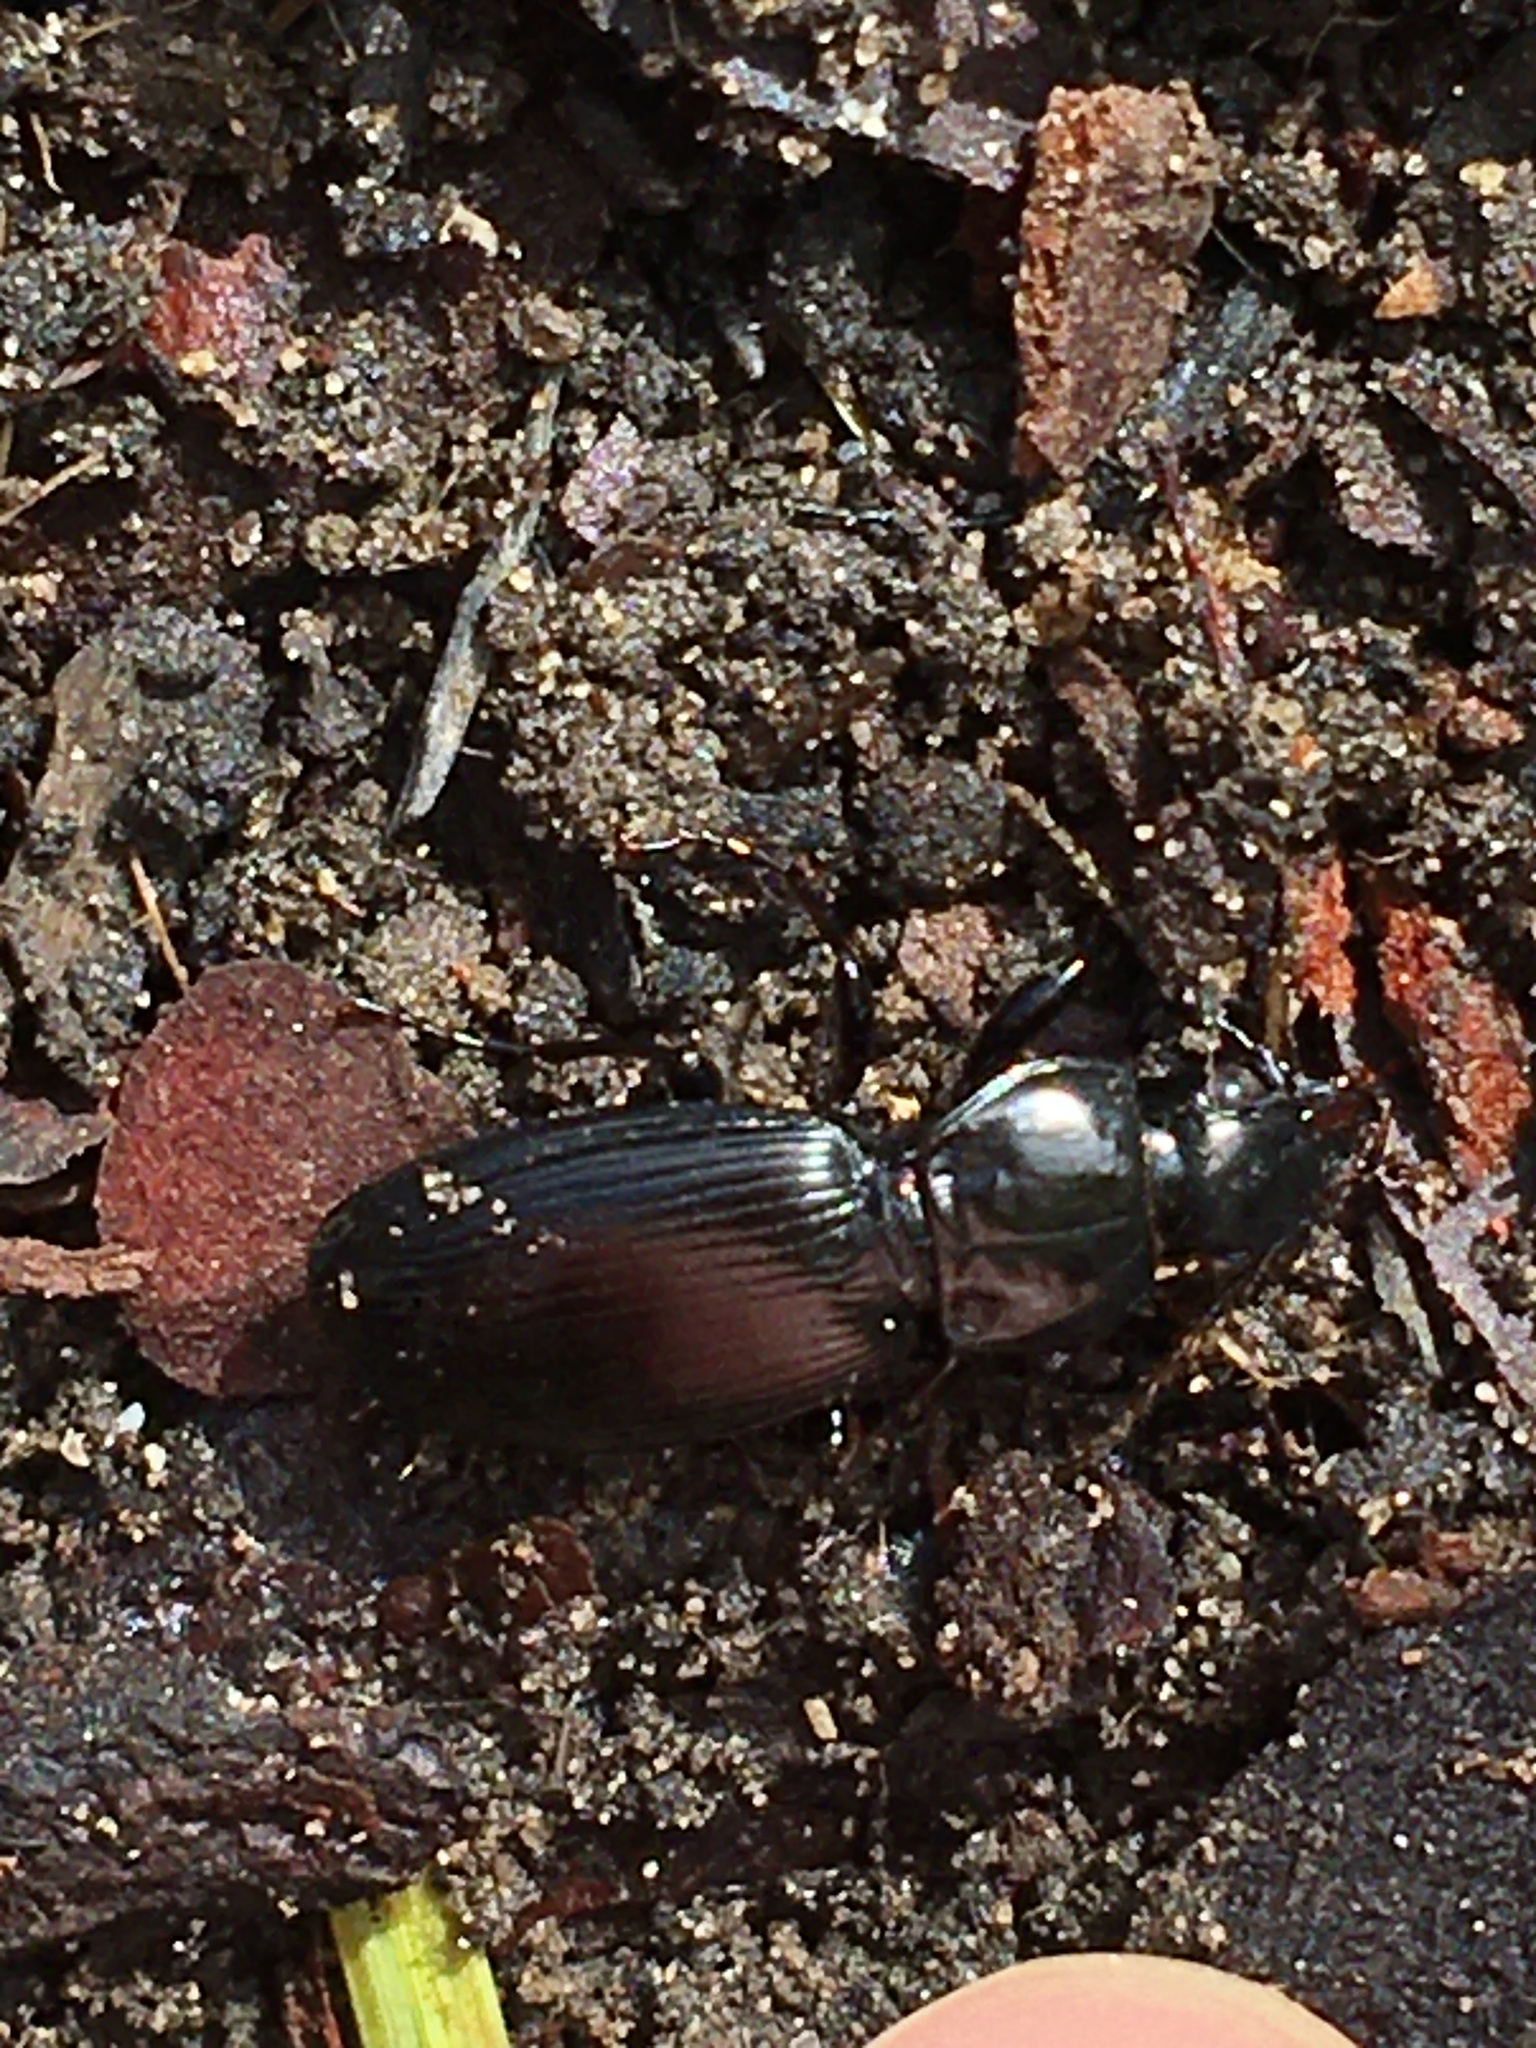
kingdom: Animalia
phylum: Arthropoda
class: Insecta
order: Coleoptera
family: Carabidae
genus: Pterostichus
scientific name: Pterostichus madidus
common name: Black clock
